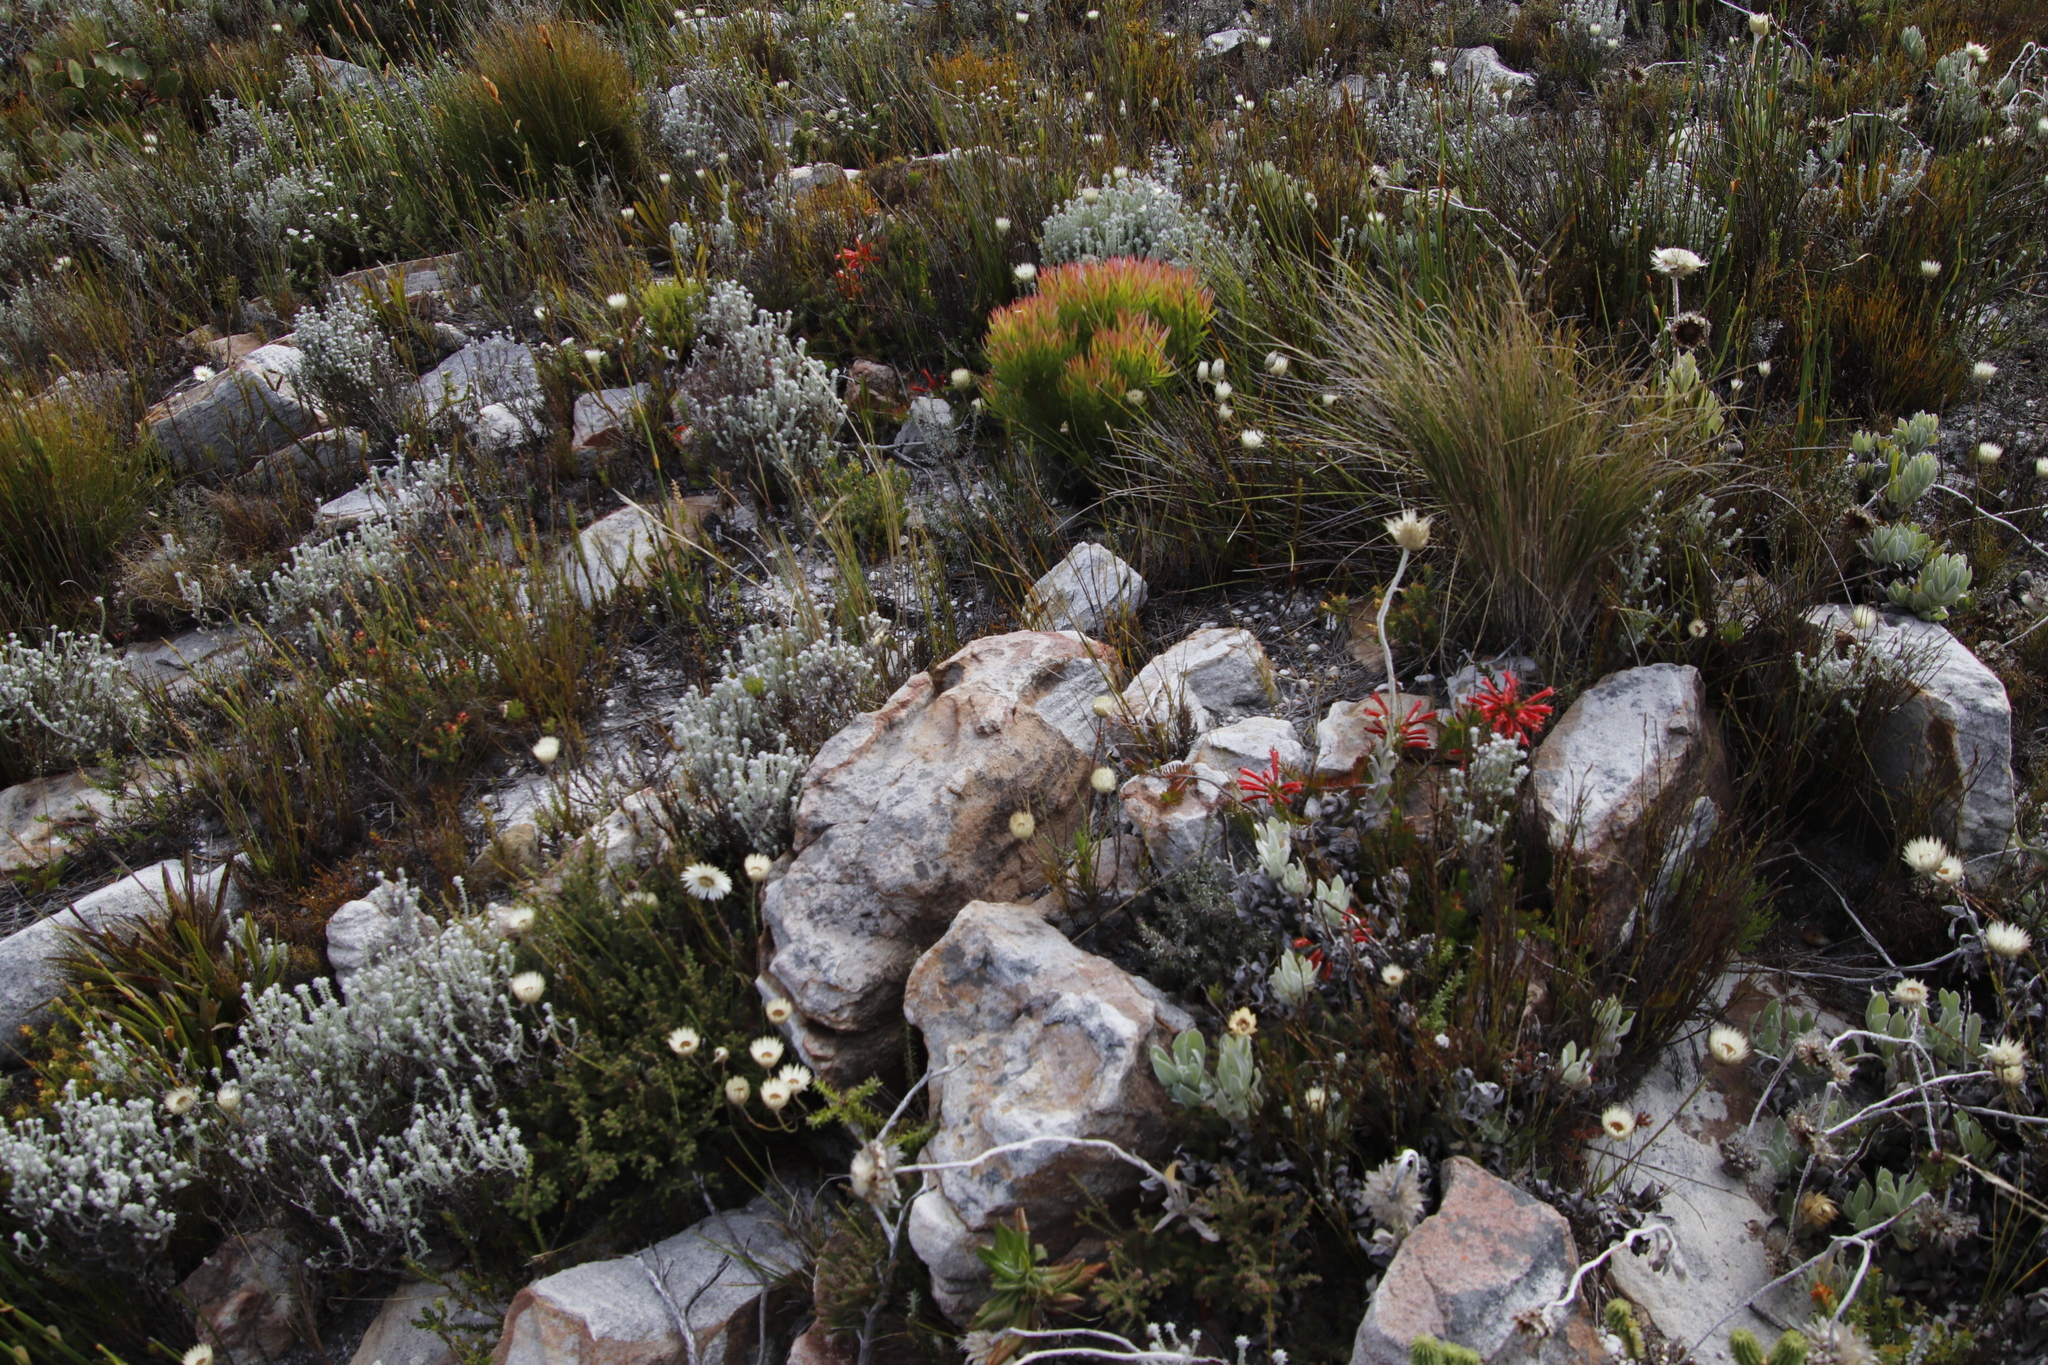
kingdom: Plantae
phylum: Tracheophyta
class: Magnoliopsida
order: Asterales
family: Asteraceae
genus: Syncarpha
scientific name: Syncarpha speciosissima
